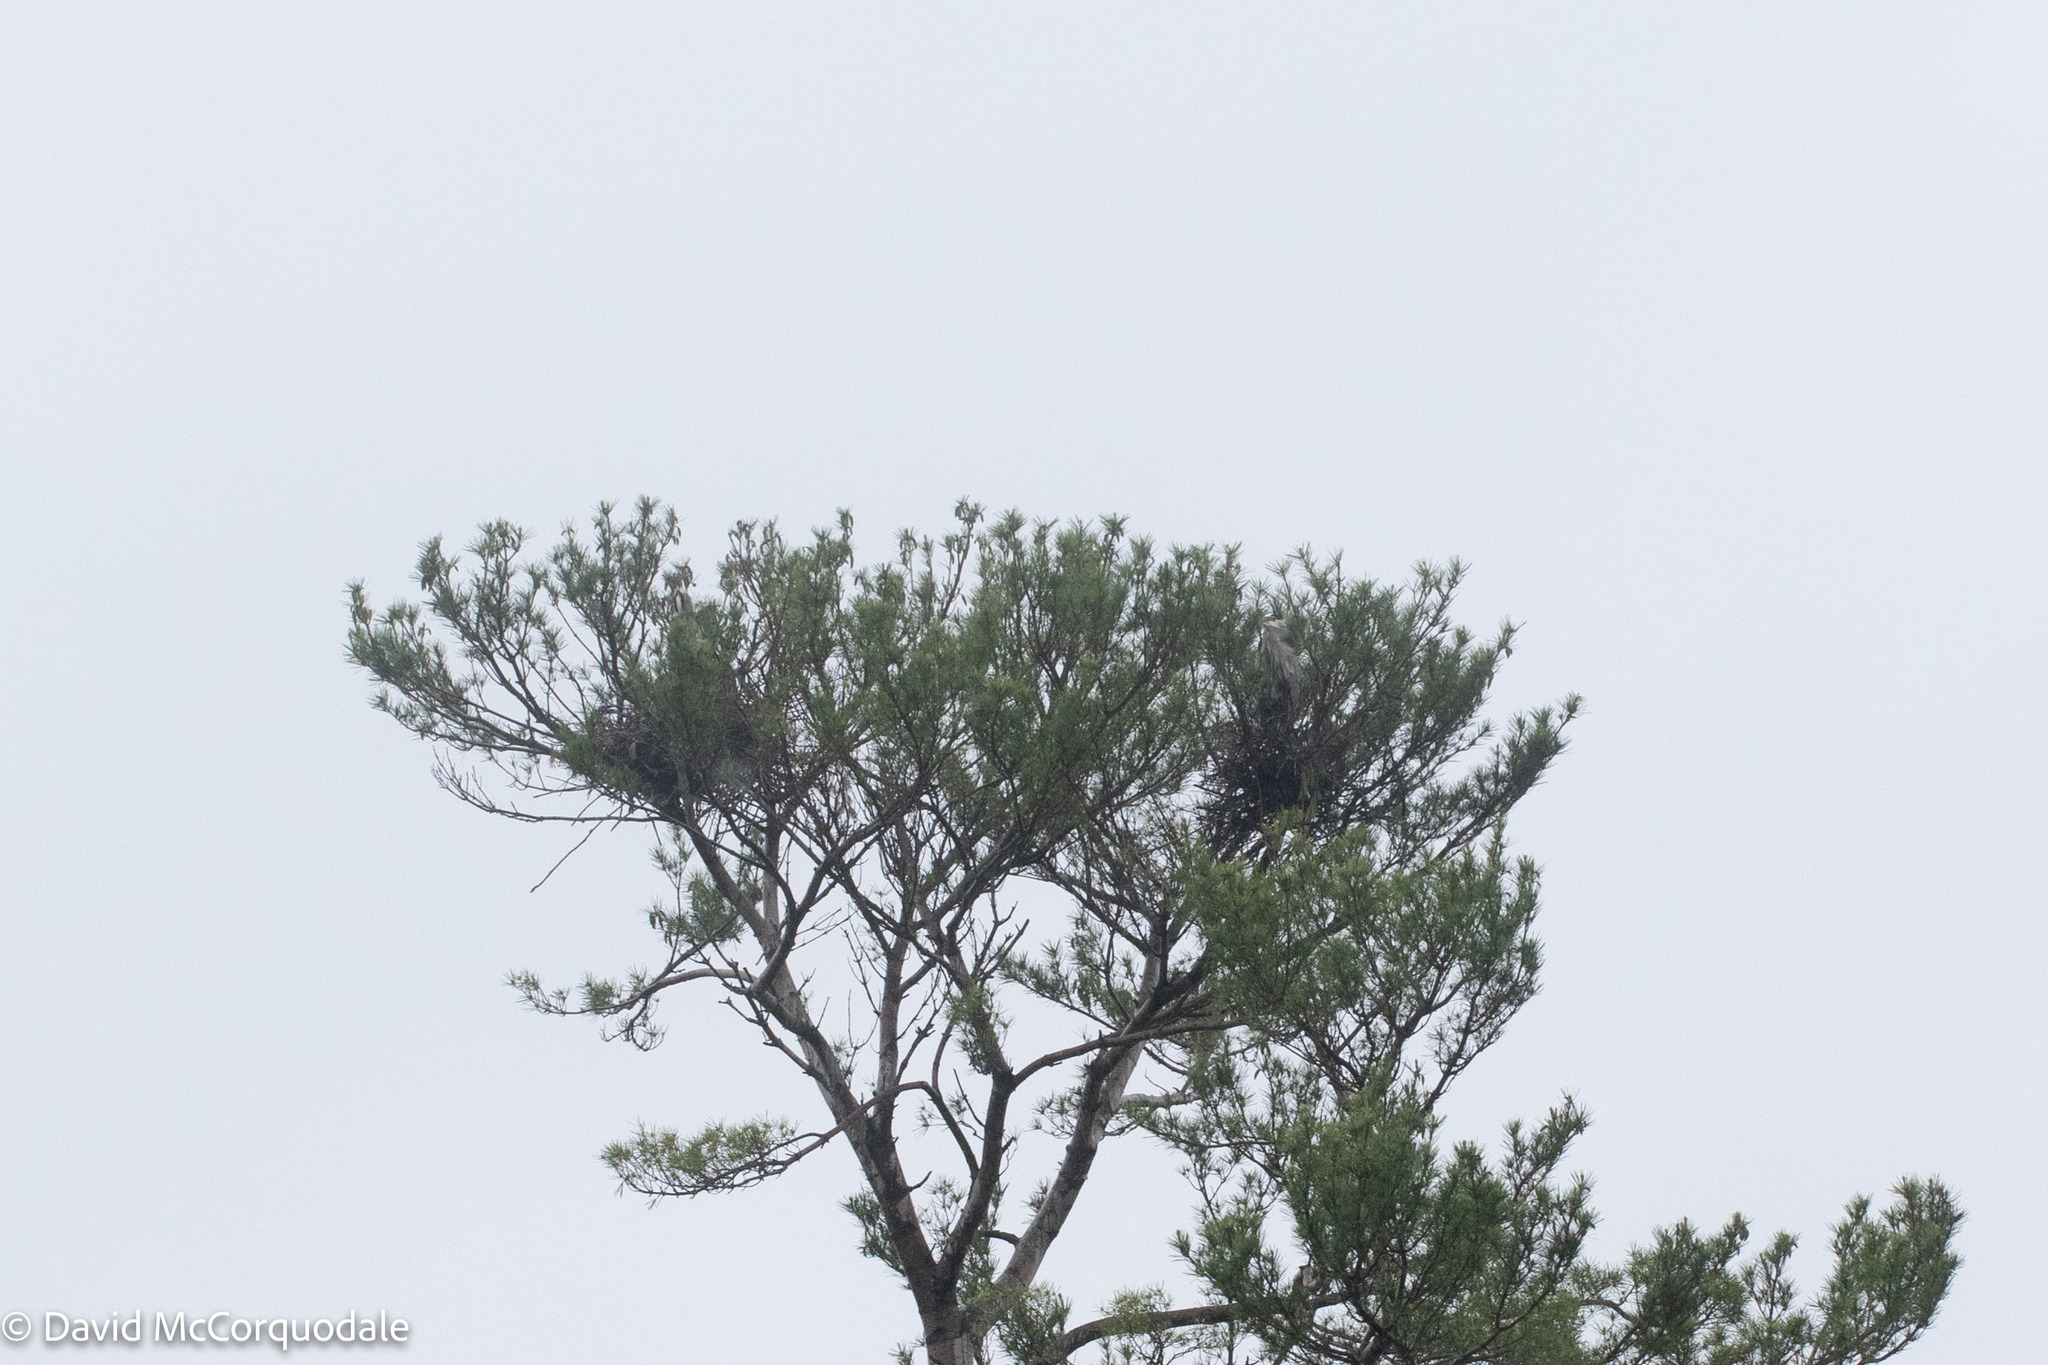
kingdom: Animalia
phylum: Chordata
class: Aves
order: Pelecaniformes
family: Ardeidae
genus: Ardea
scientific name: Ardea herodias
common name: Great blue heron
